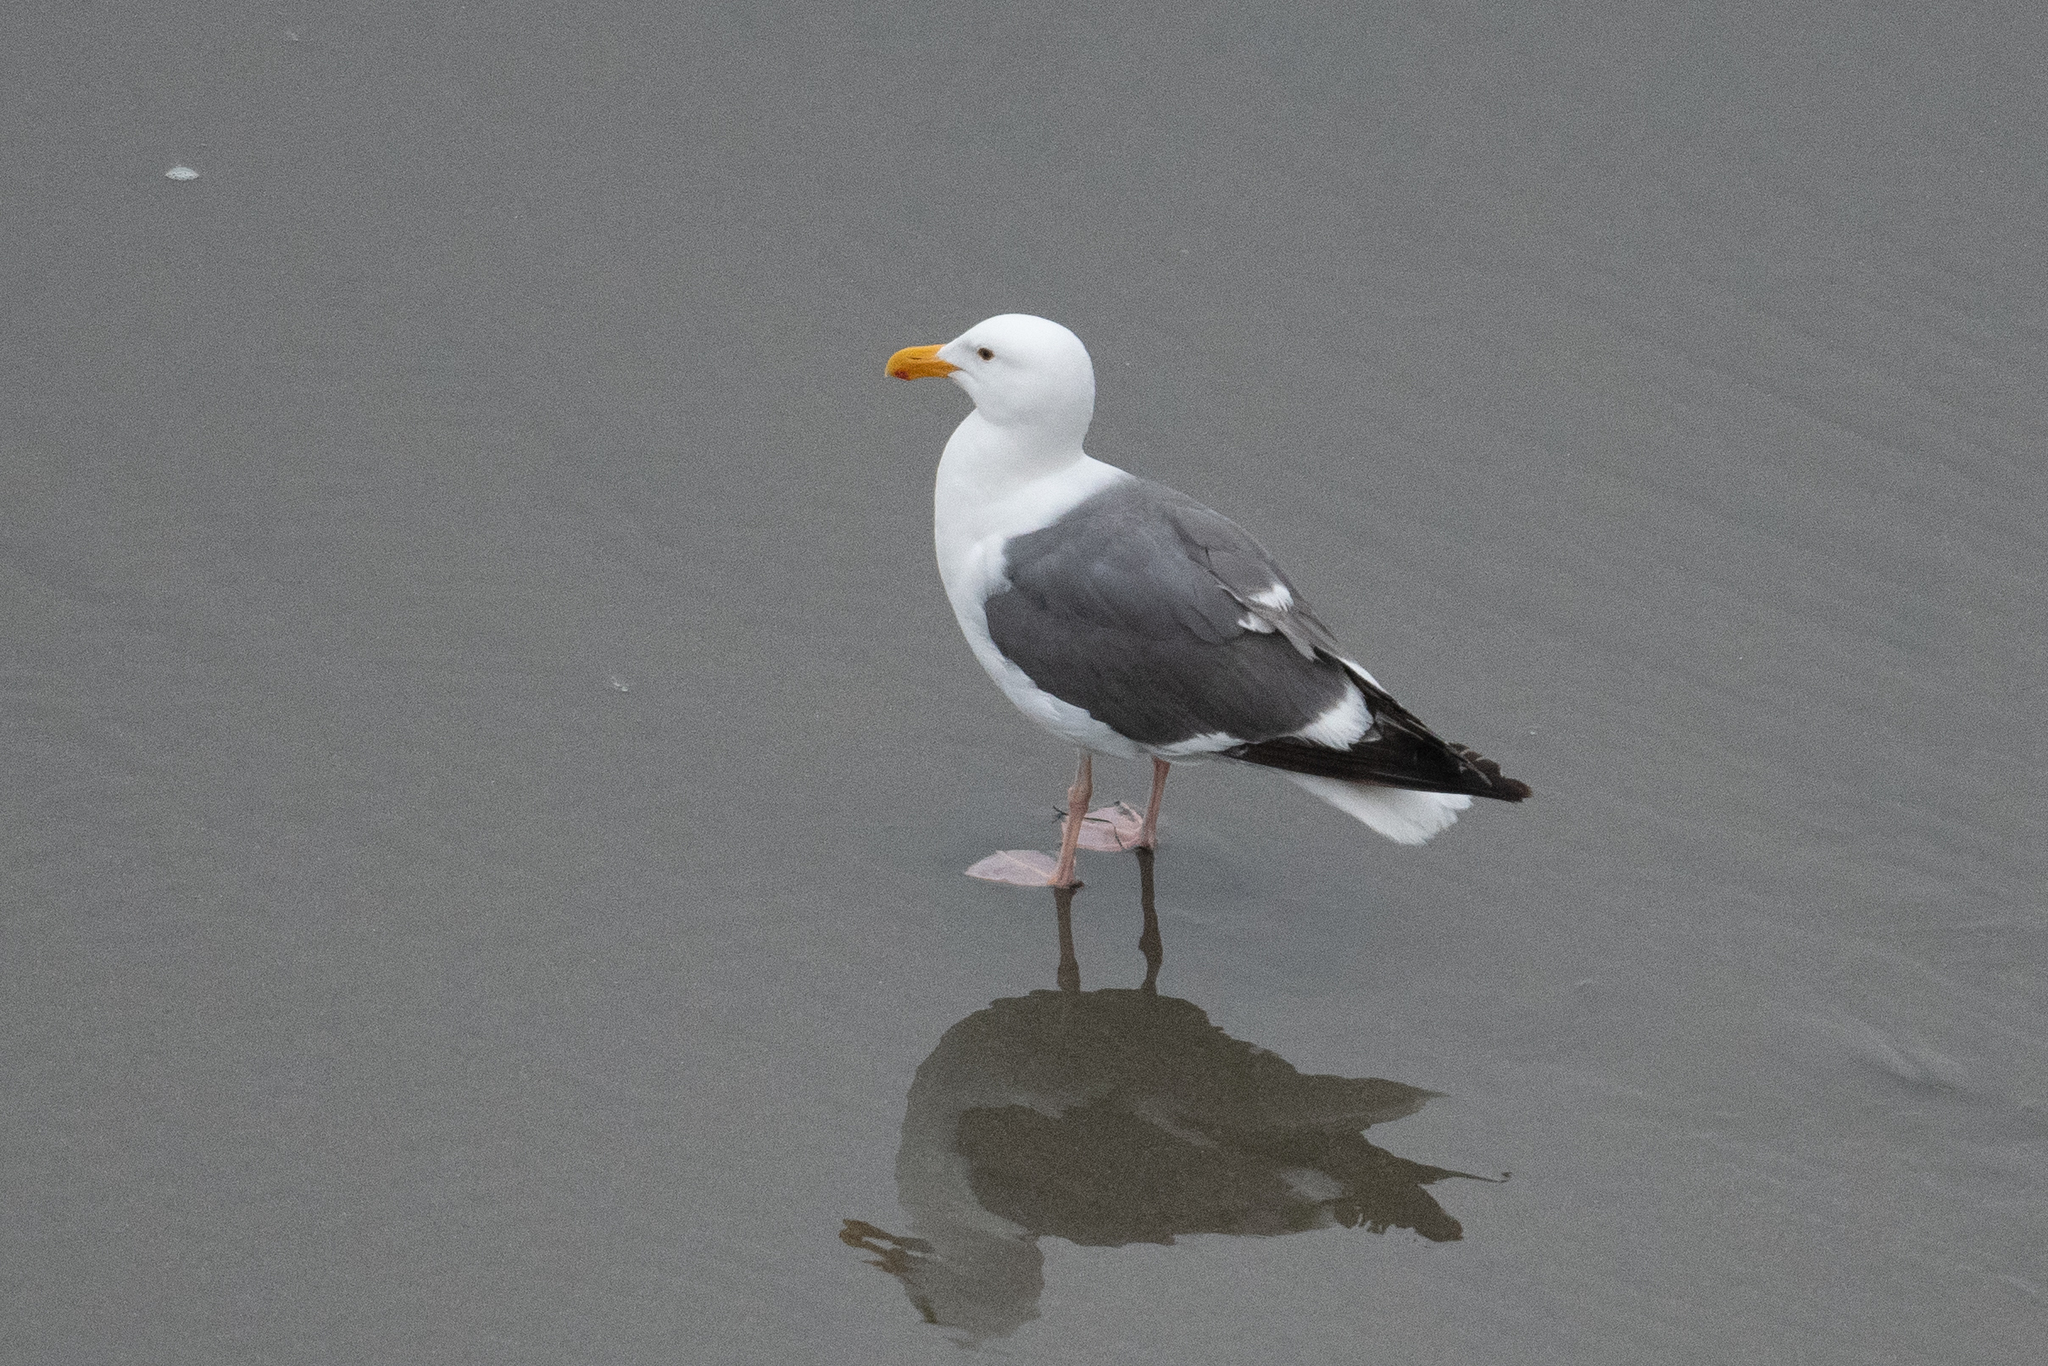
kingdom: Animalia
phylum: Chordata
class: Aves
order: Charadriiformes
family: Laridae
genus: Larus
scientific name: Larus occidentalis
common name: Western gull
